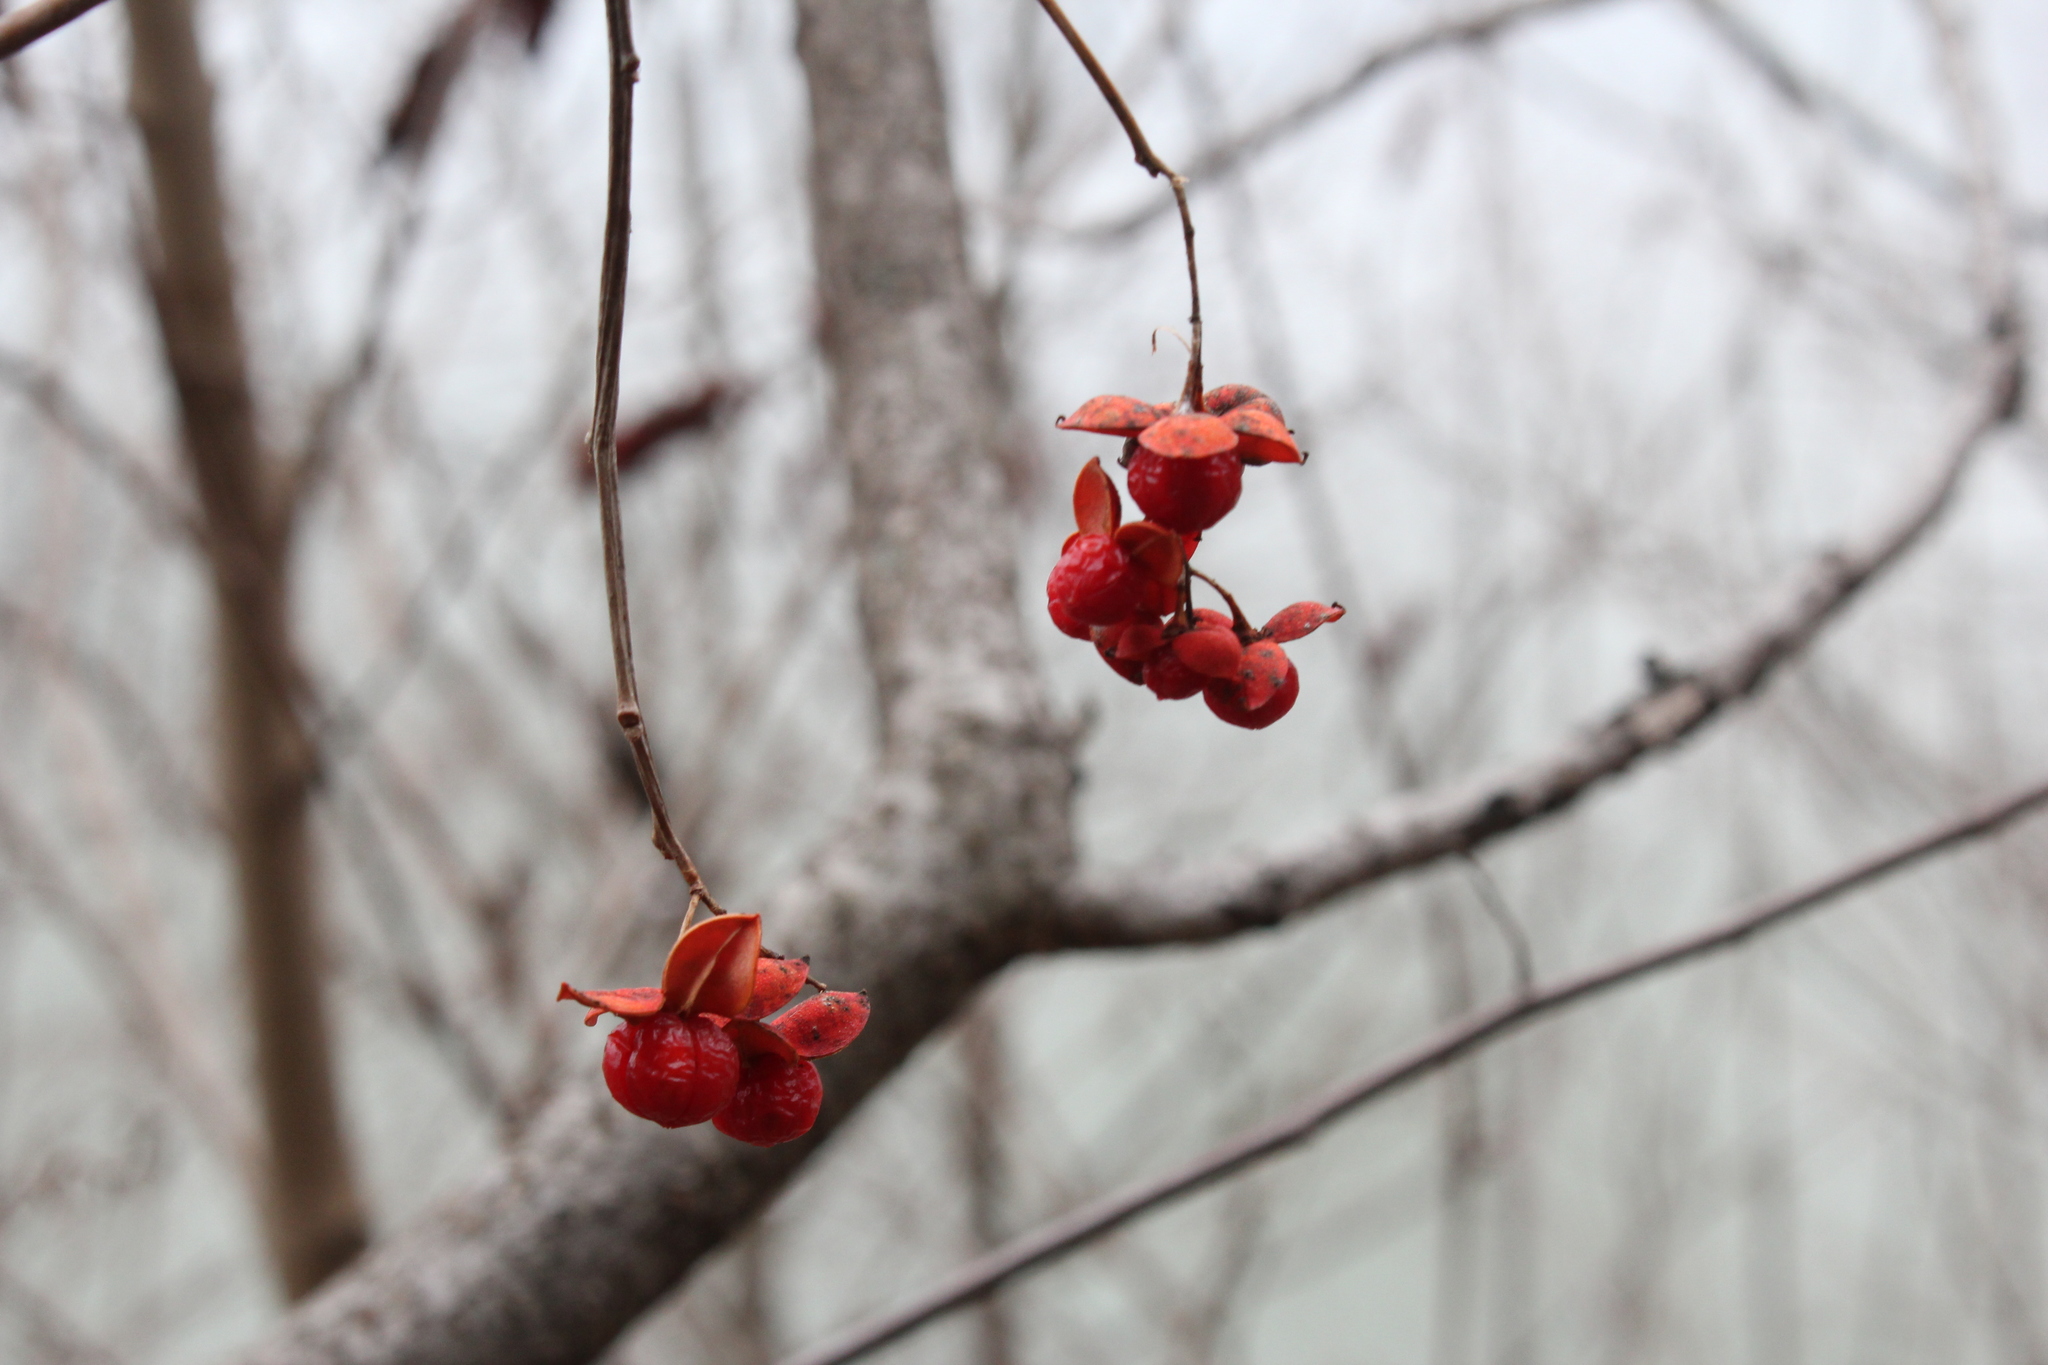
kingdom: Plantae
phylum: Tracheophyta
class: Magnoliopsida
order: Celastrales
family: Celastraceae
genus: Celastrus
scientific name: Celastrus scandens
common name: American bittersweet
